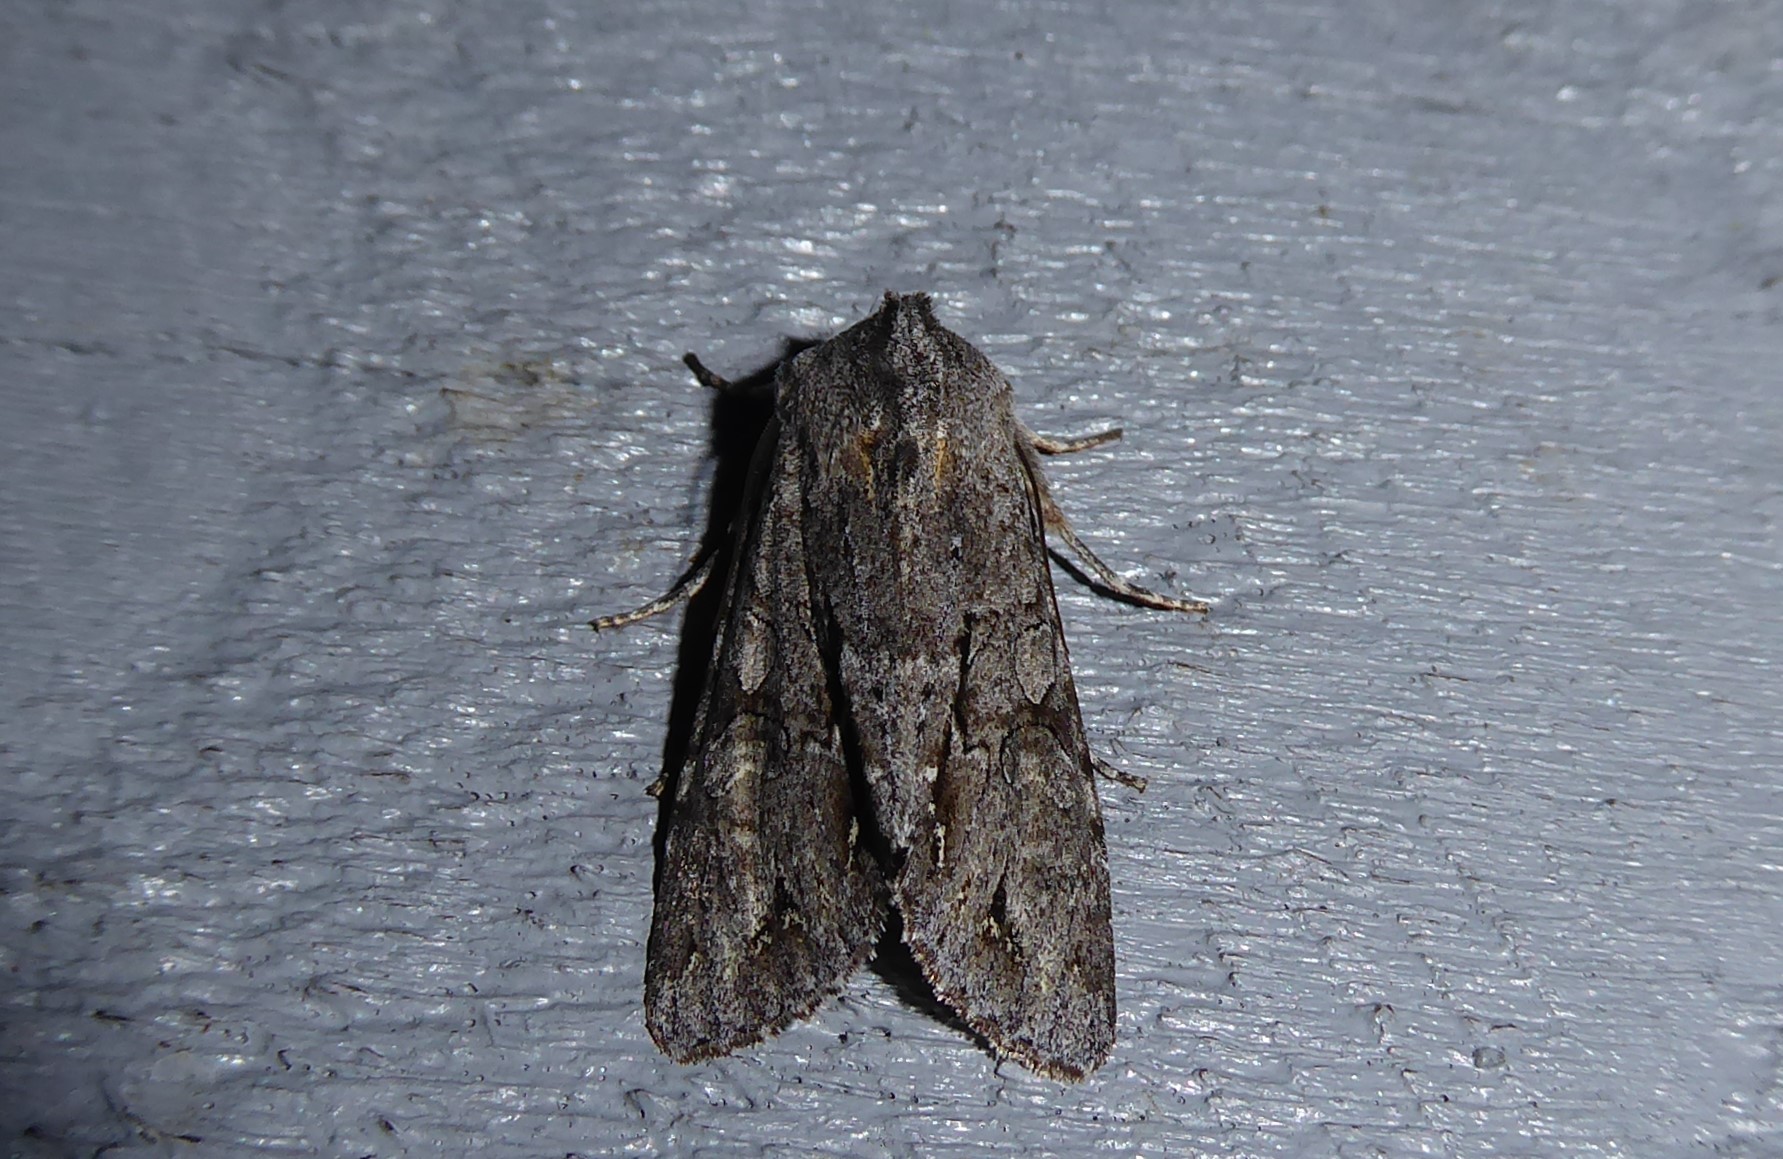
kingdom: Animalia
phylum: Arthropoda
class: Insecta
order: Lepidoptera
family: Noctuidae
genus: Ichneutica
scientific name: Ichneutica
